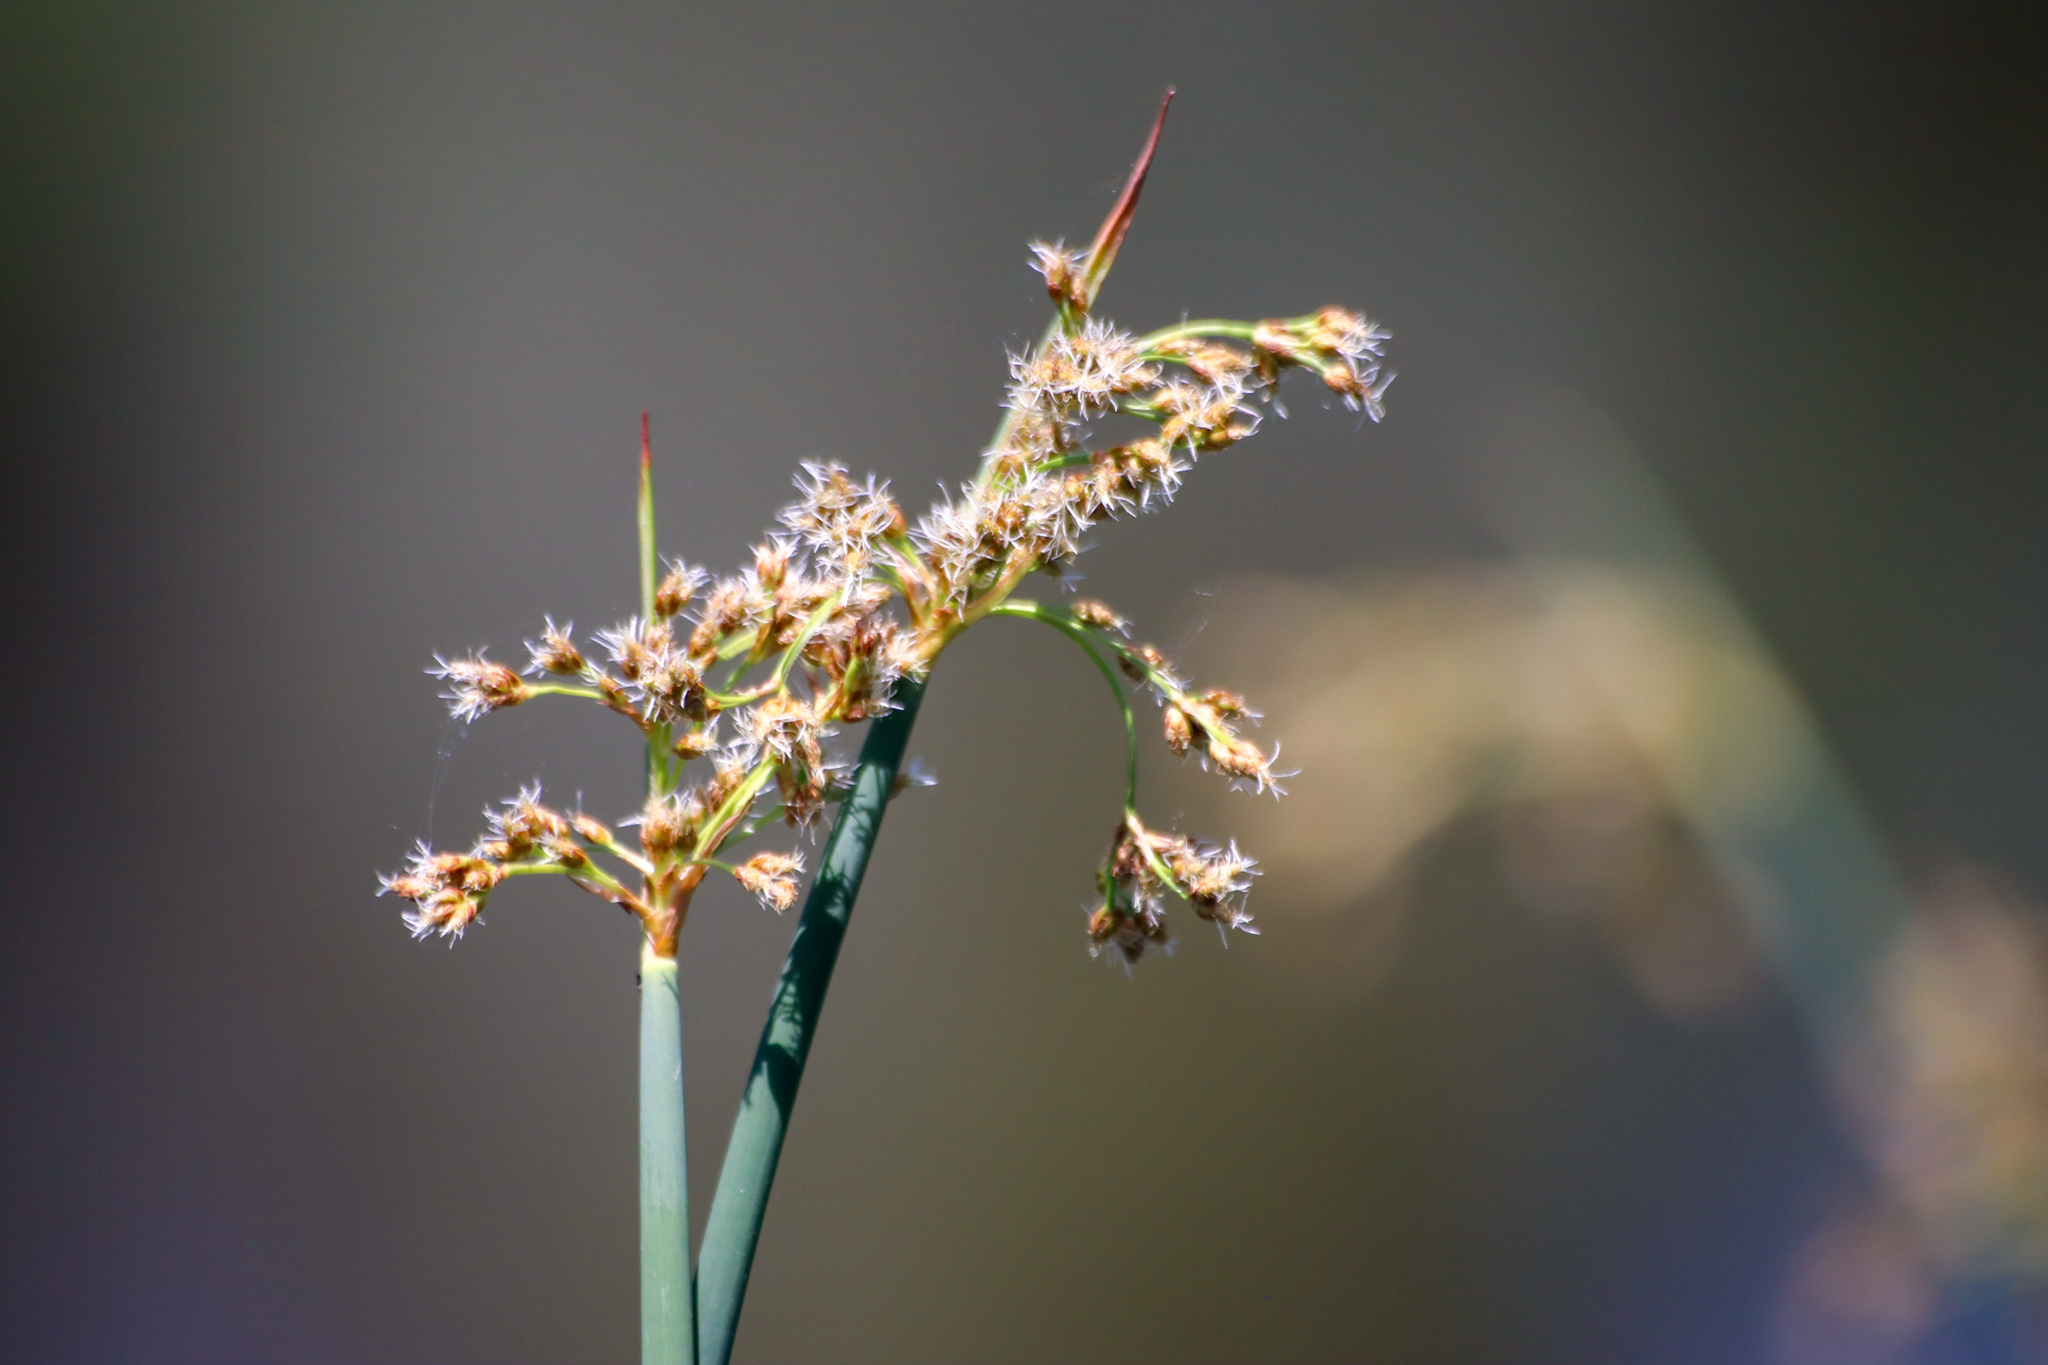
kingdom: Plantae
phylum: Tracheophyta
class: Liliopsida
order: Poales
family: Cyperaceae
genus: Schoenoplectus
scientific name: Schoenoplectus tabernaemontani
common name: Grey club-rush
